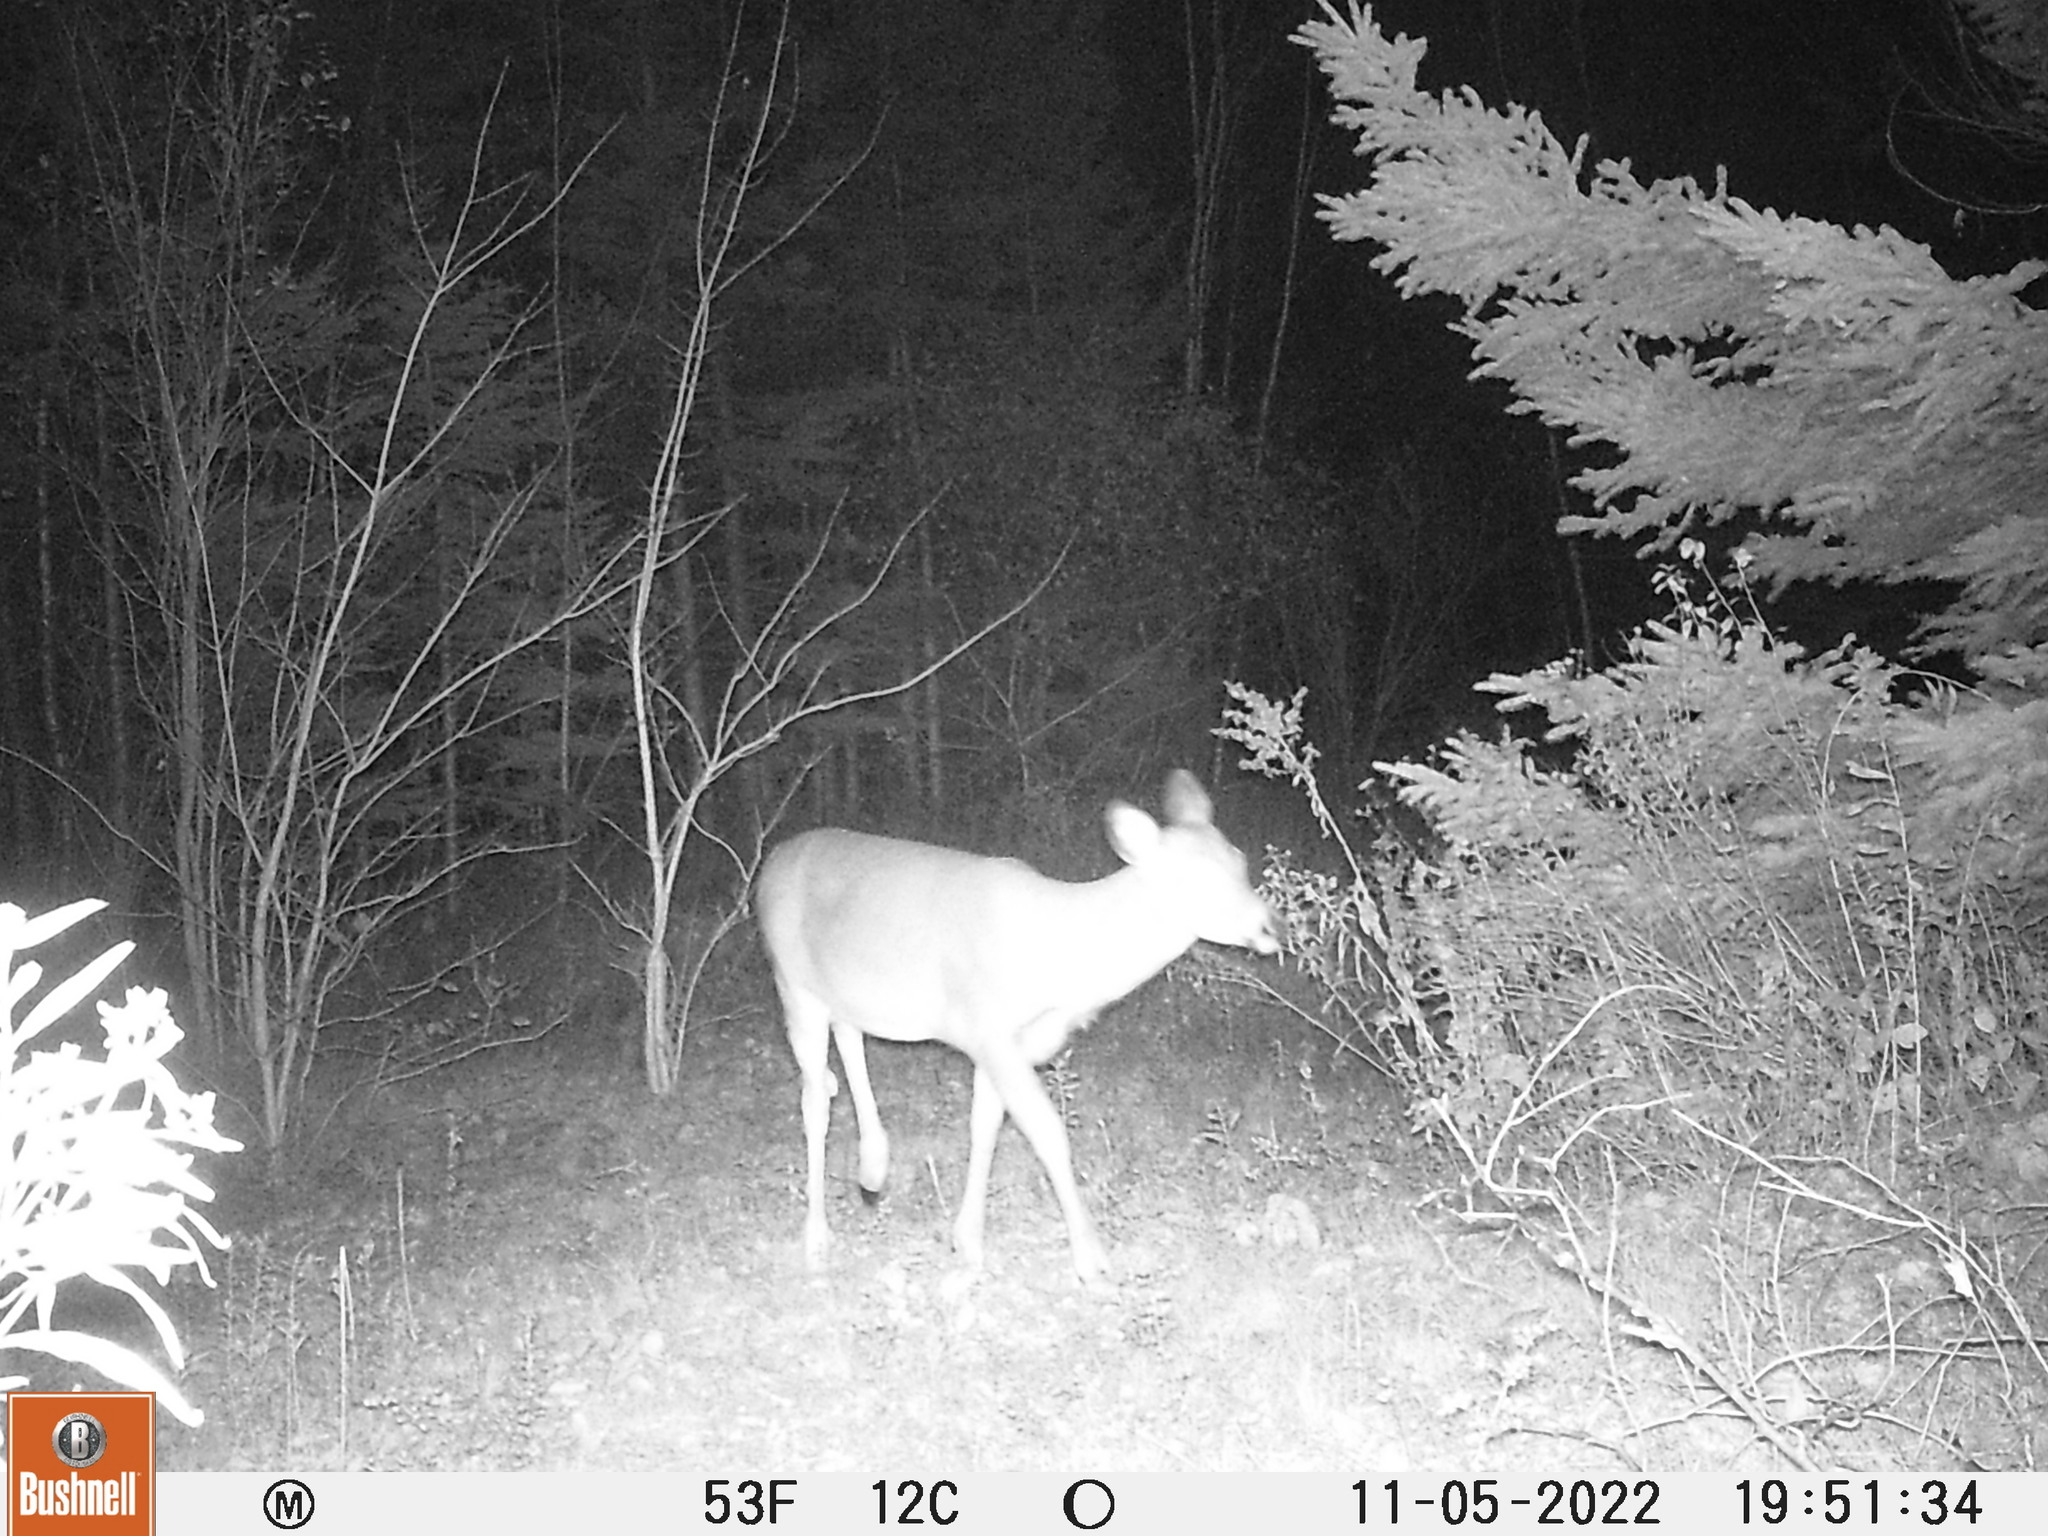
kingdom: Animalia
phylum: Chordata
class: Mammalia
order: Artiodactyla
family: Cervidae
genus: Odocoileus
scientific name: Odocoileus virginianus
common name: White-tailed deer
